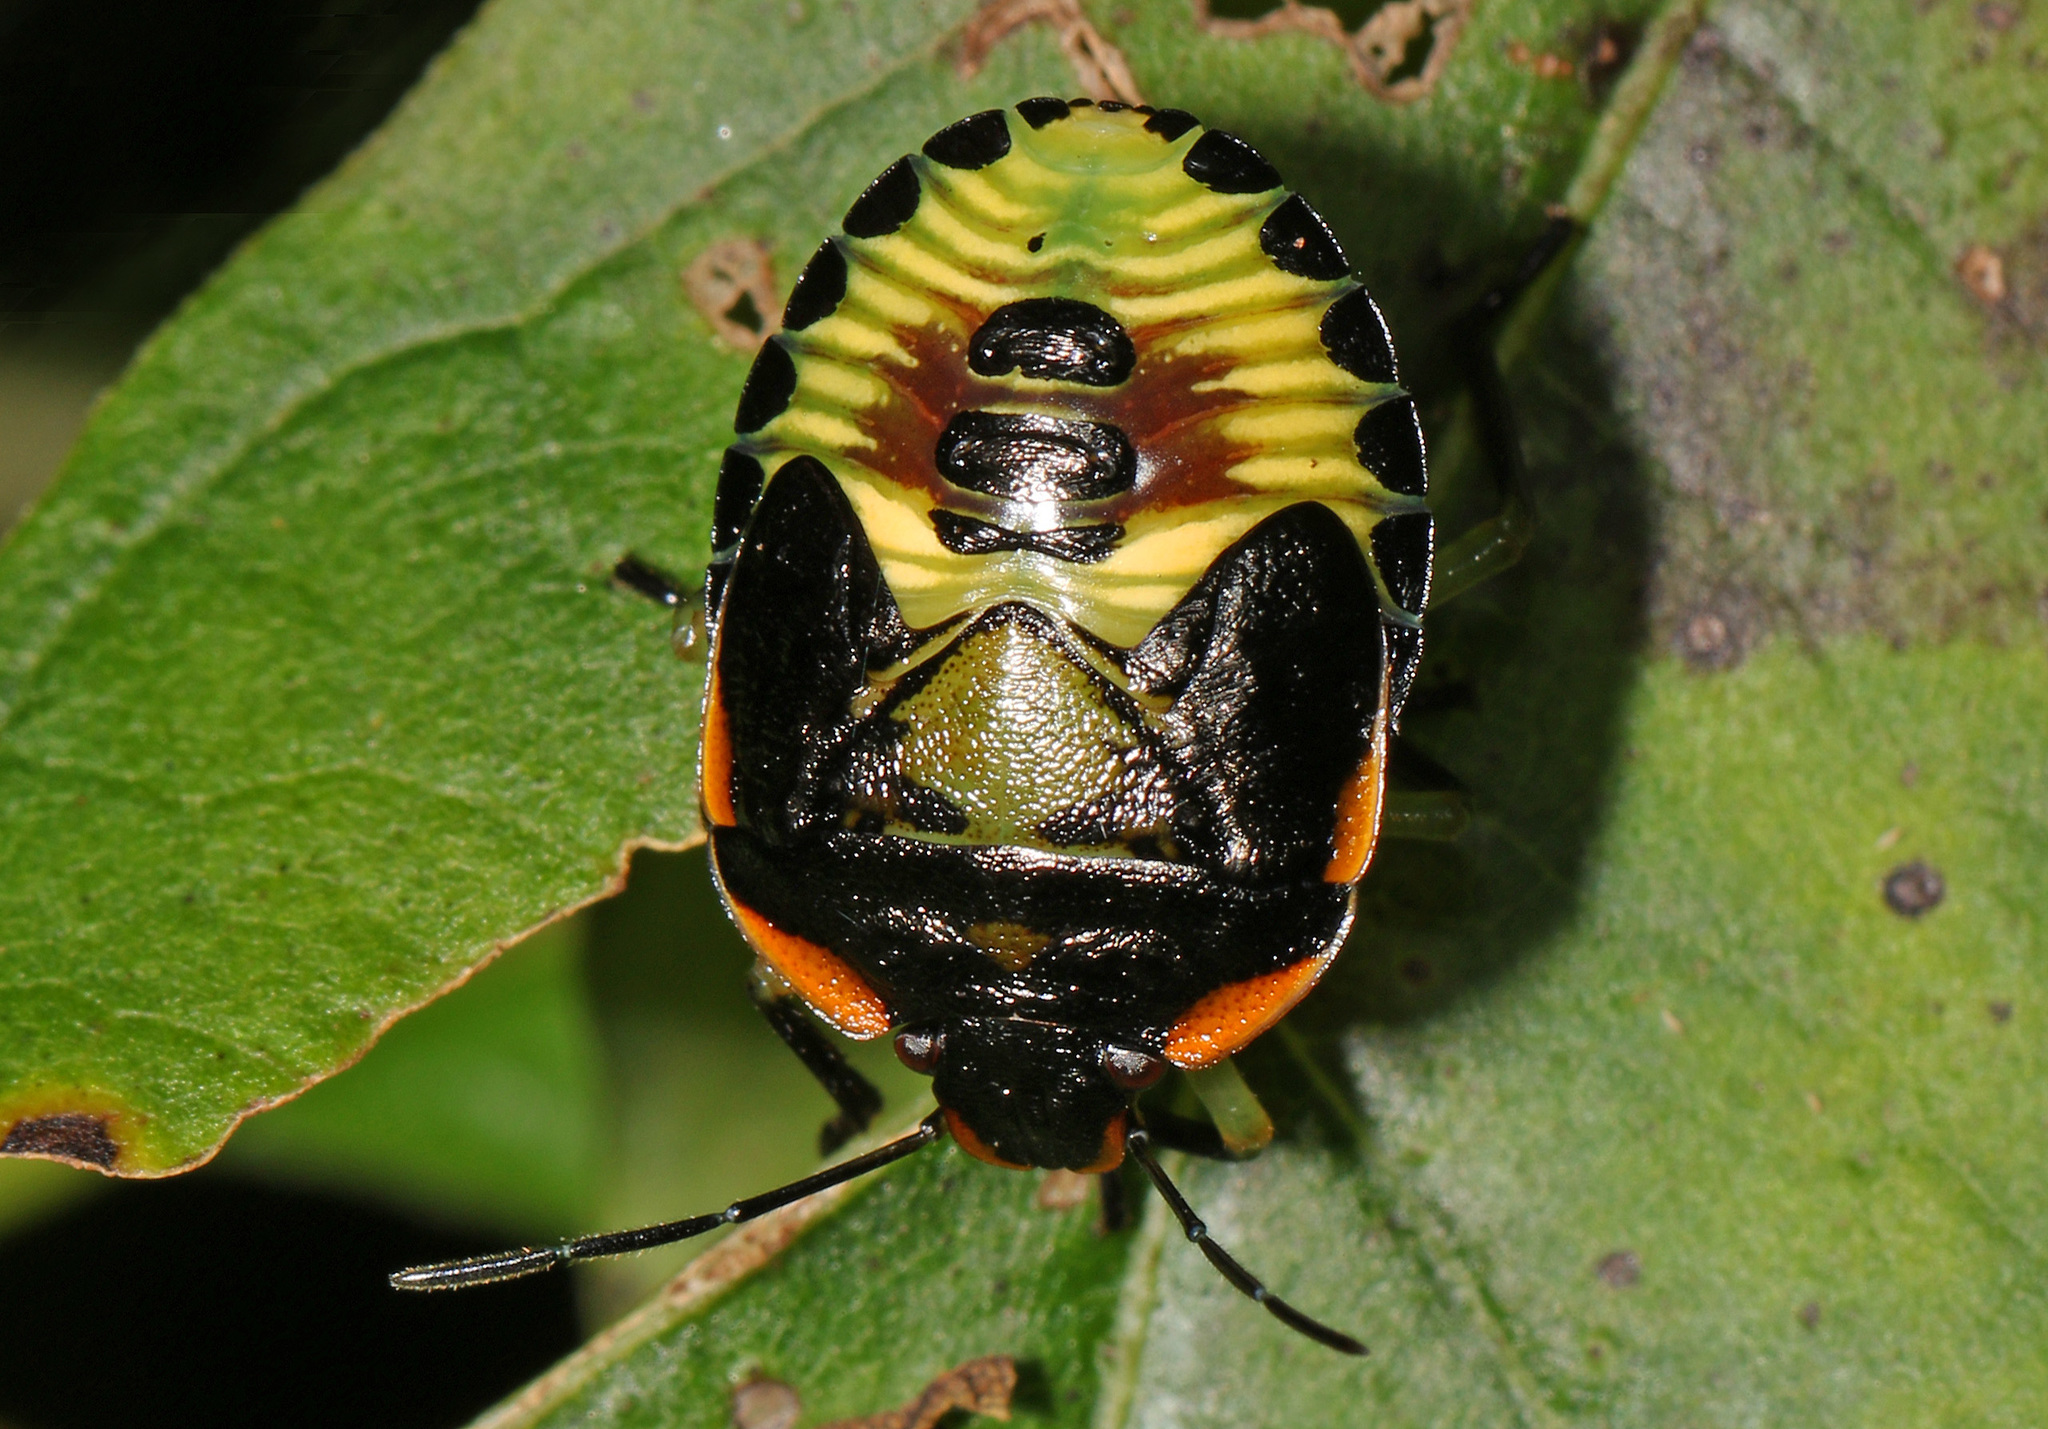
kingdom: Animalia
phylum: Arthropoda
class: Insecta
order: Hemiptera
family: Pentatomidae
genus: Chinavia
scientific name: Chinavia hilaris
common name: Green stink bug
